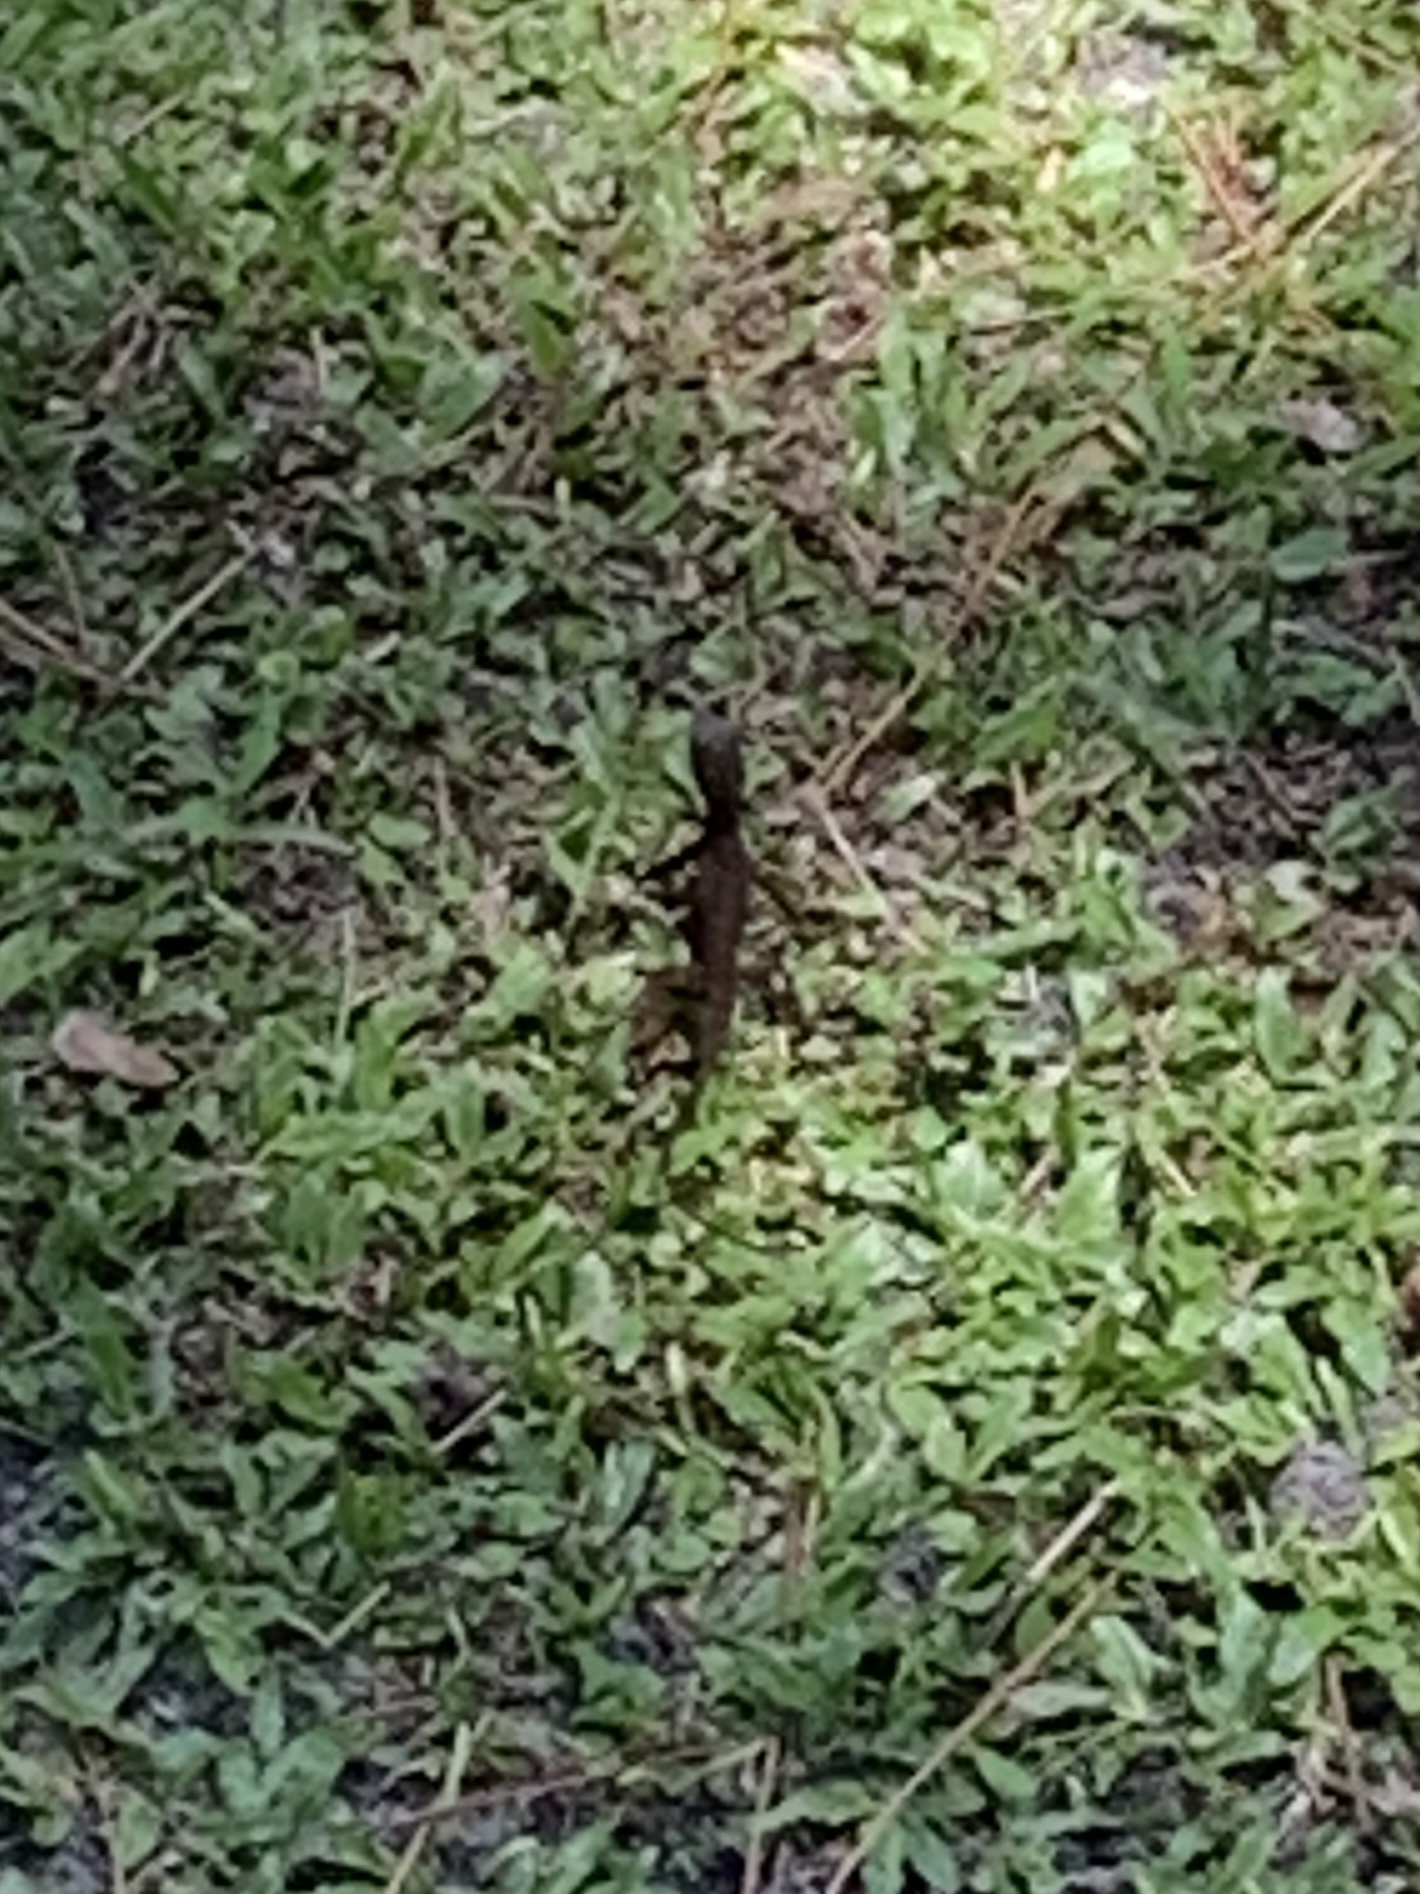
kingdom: Animalia
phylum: Chordata
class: Squamata
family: Dactyloidae
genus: Anolis
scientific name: Anolis sagrei
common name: Brown anole
